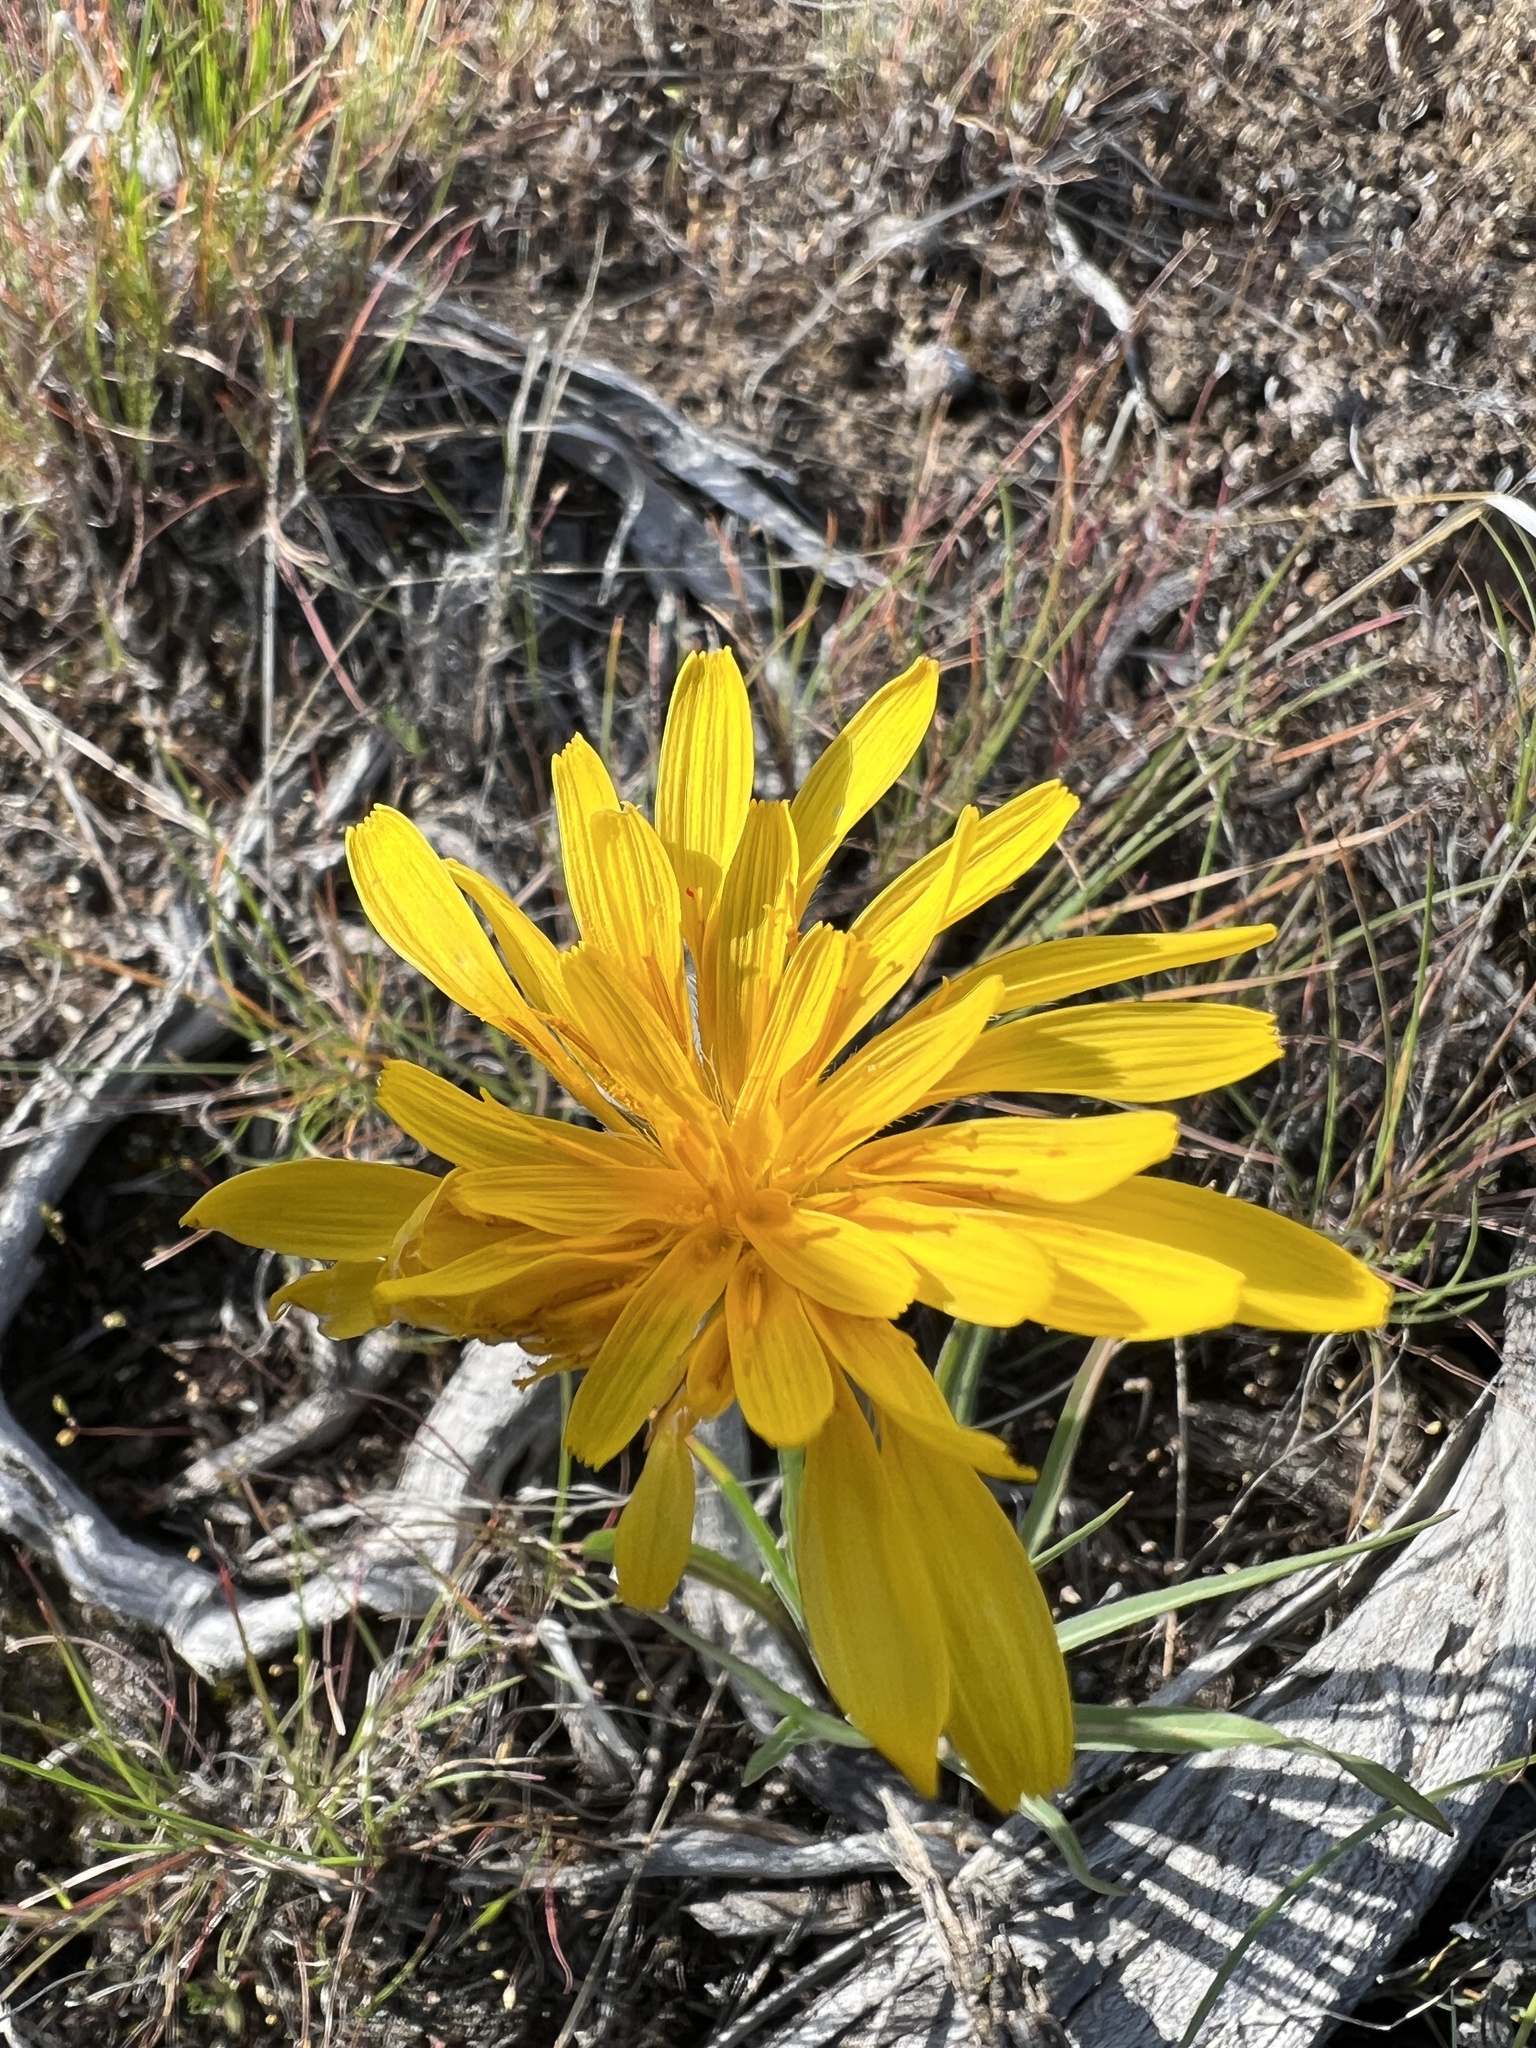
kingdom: Plantae
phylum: Tracheophyta
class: Magnoliopsida
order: Asterales
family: Asteraceae
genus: Microseris
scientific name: Microseris troximoides
